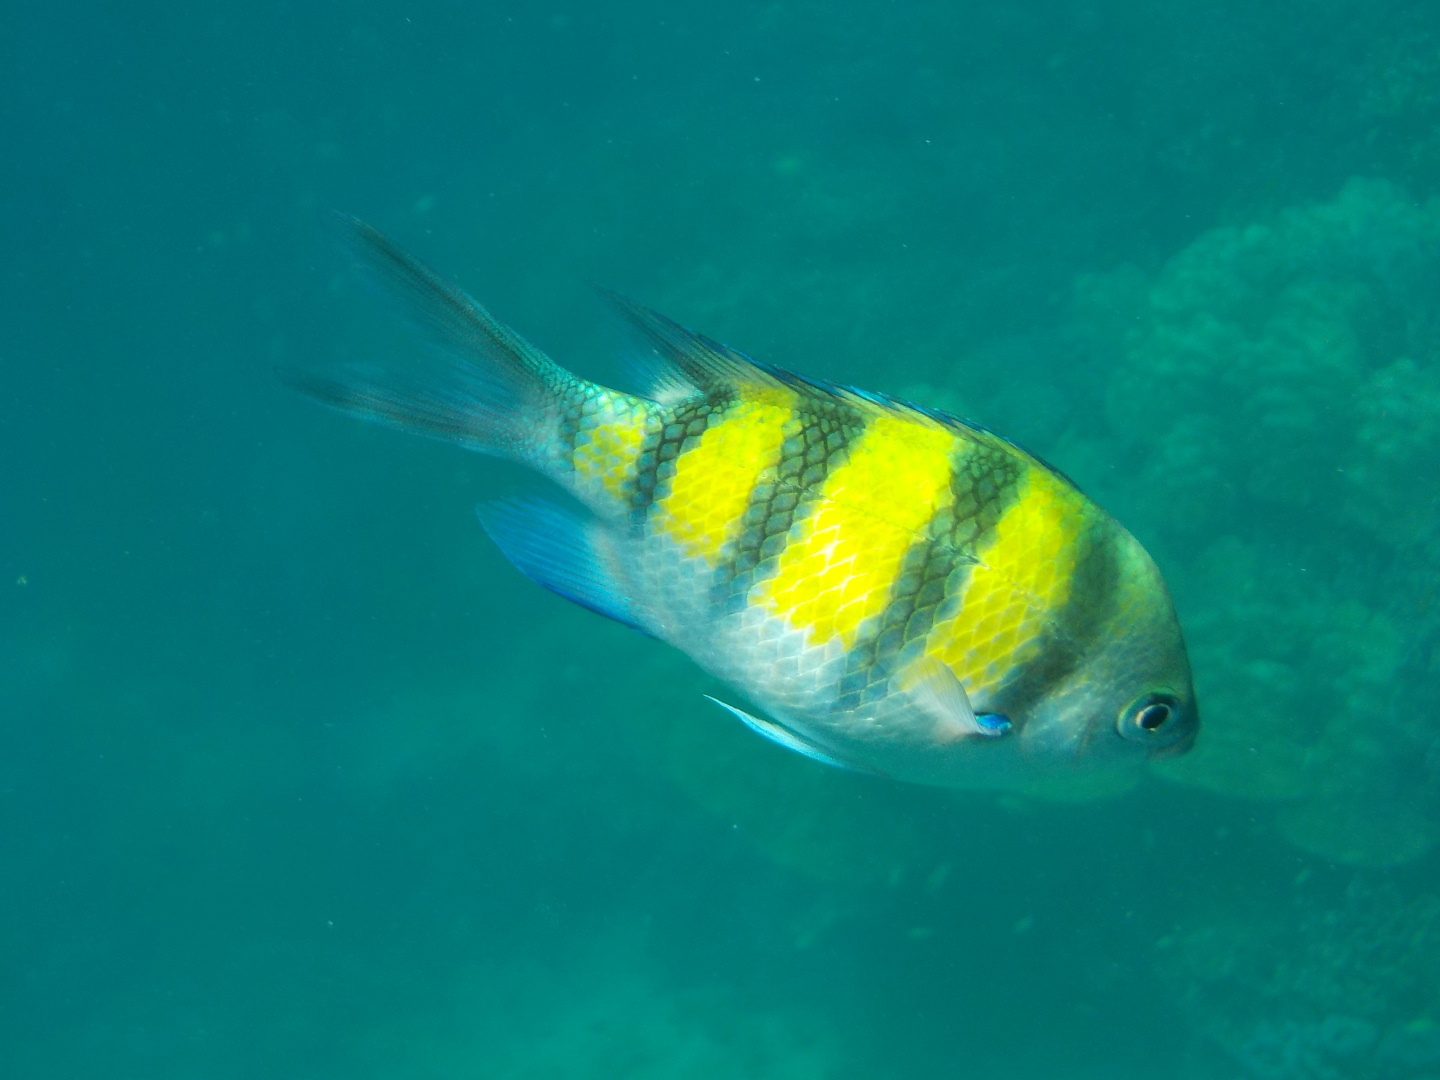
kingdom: Animalia
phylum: Chordata
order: Perciformes
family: Pomacentridae
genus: Abudefduf
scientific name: Abudefduf vaigiensis
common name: Indo-pacific sergeant
